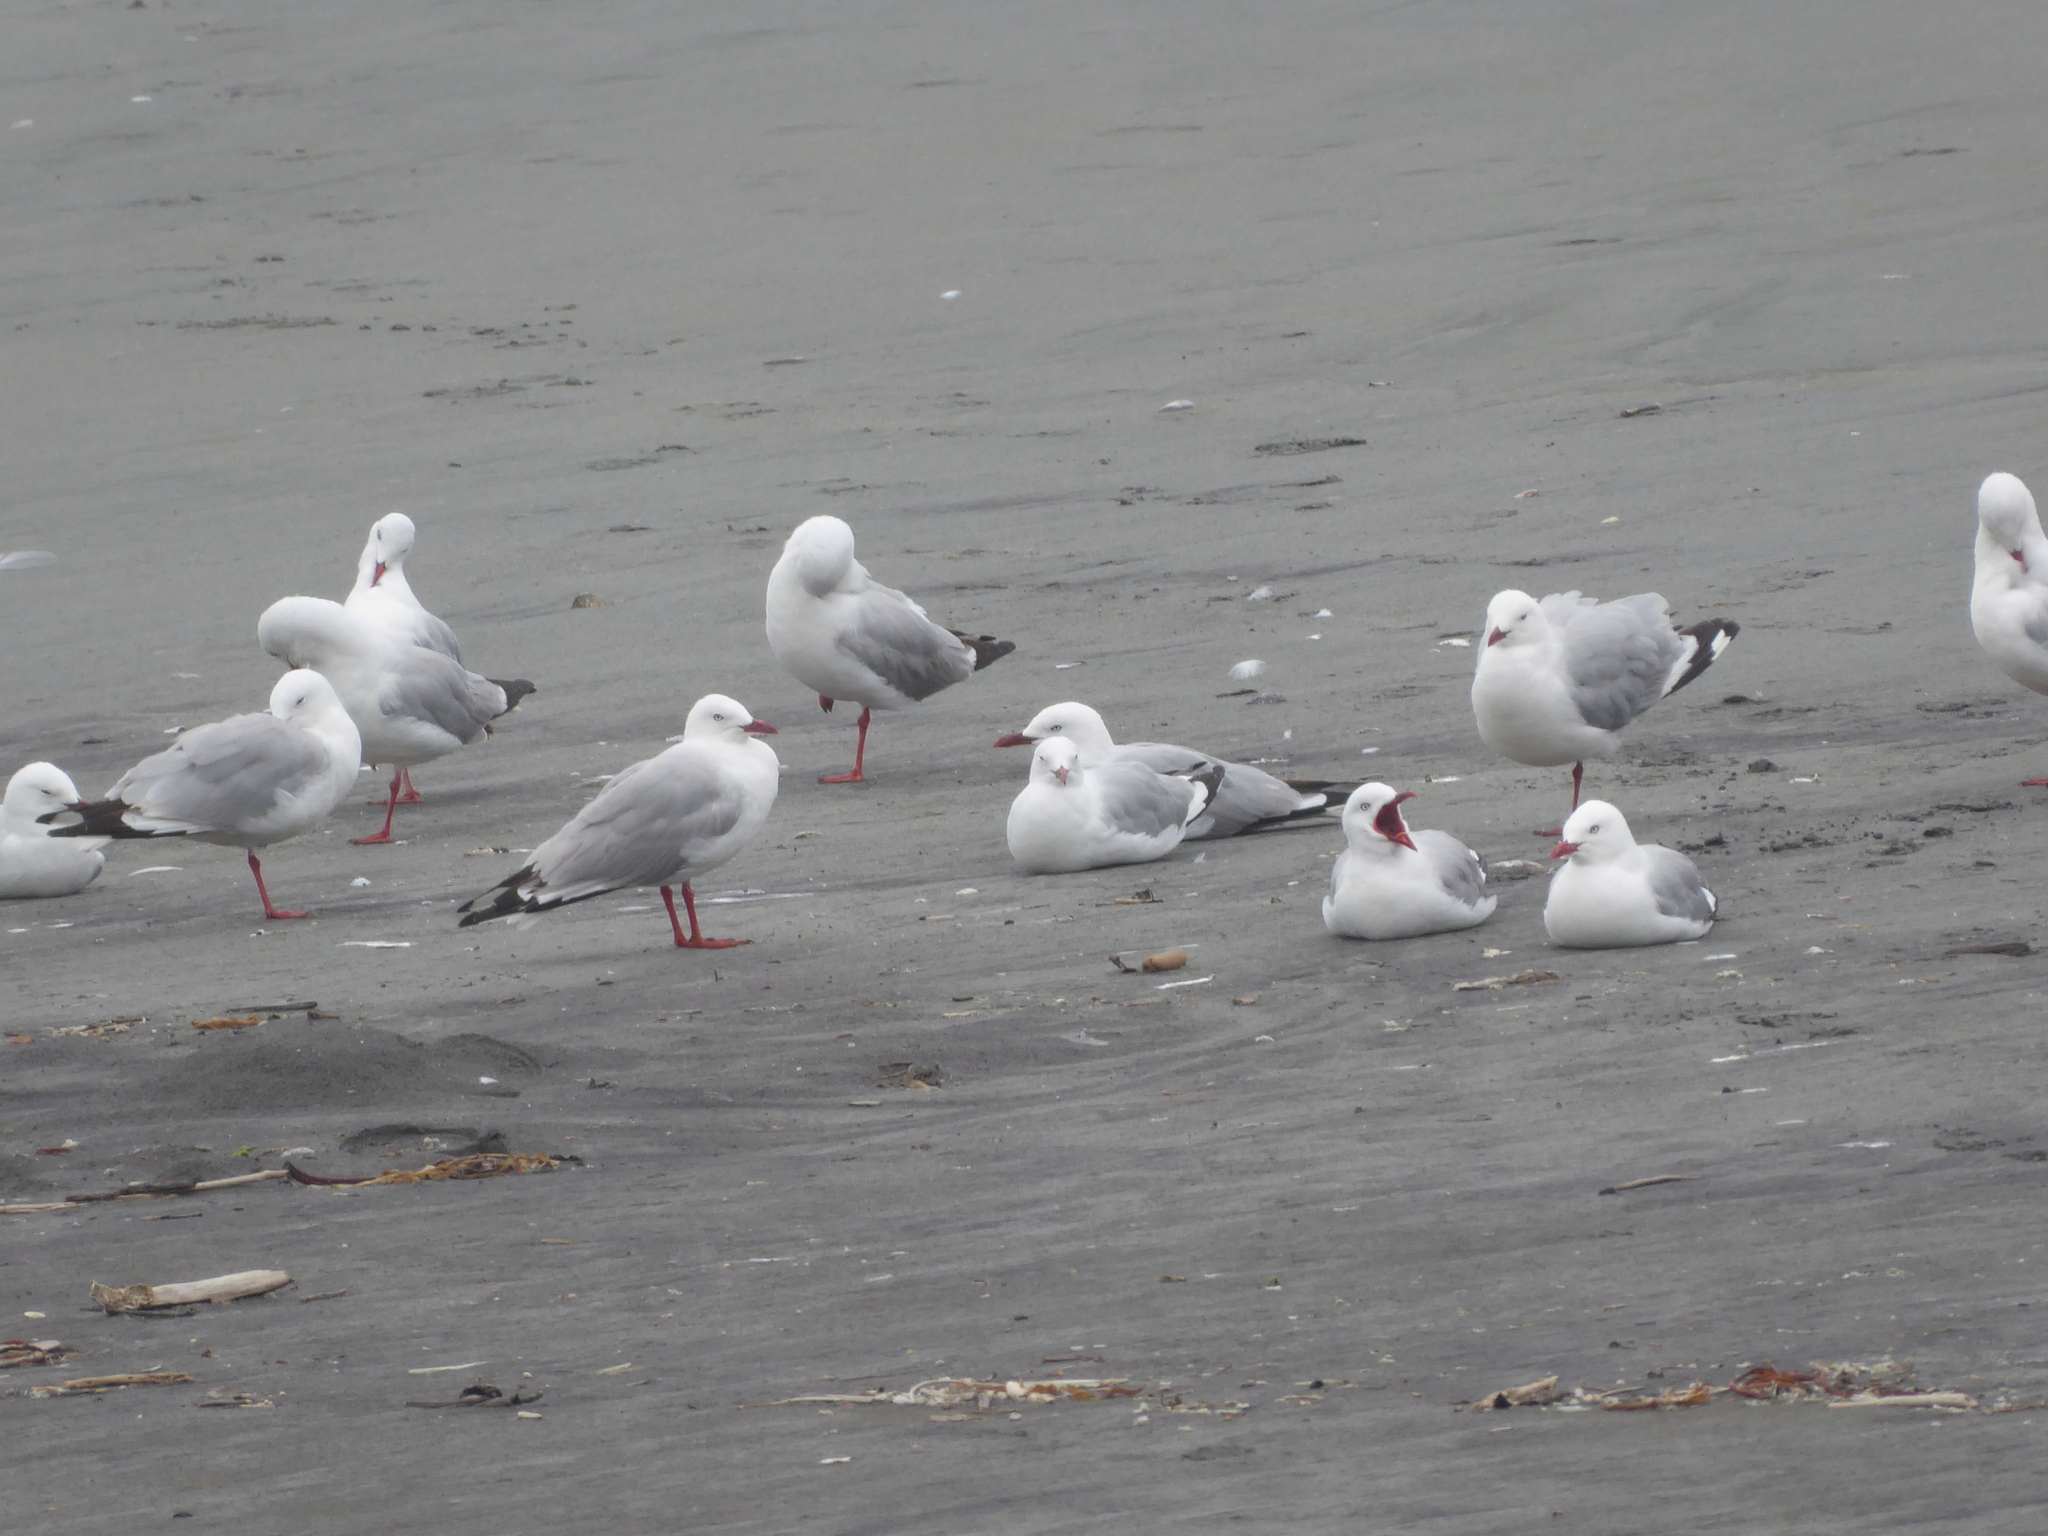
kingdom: Animalia
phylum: Chordata
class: Aves
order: Charadriiformes
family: Laridae
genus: Chroicocephalus
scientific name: Chroicocephalus novaehollandiae
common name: Silver gull
